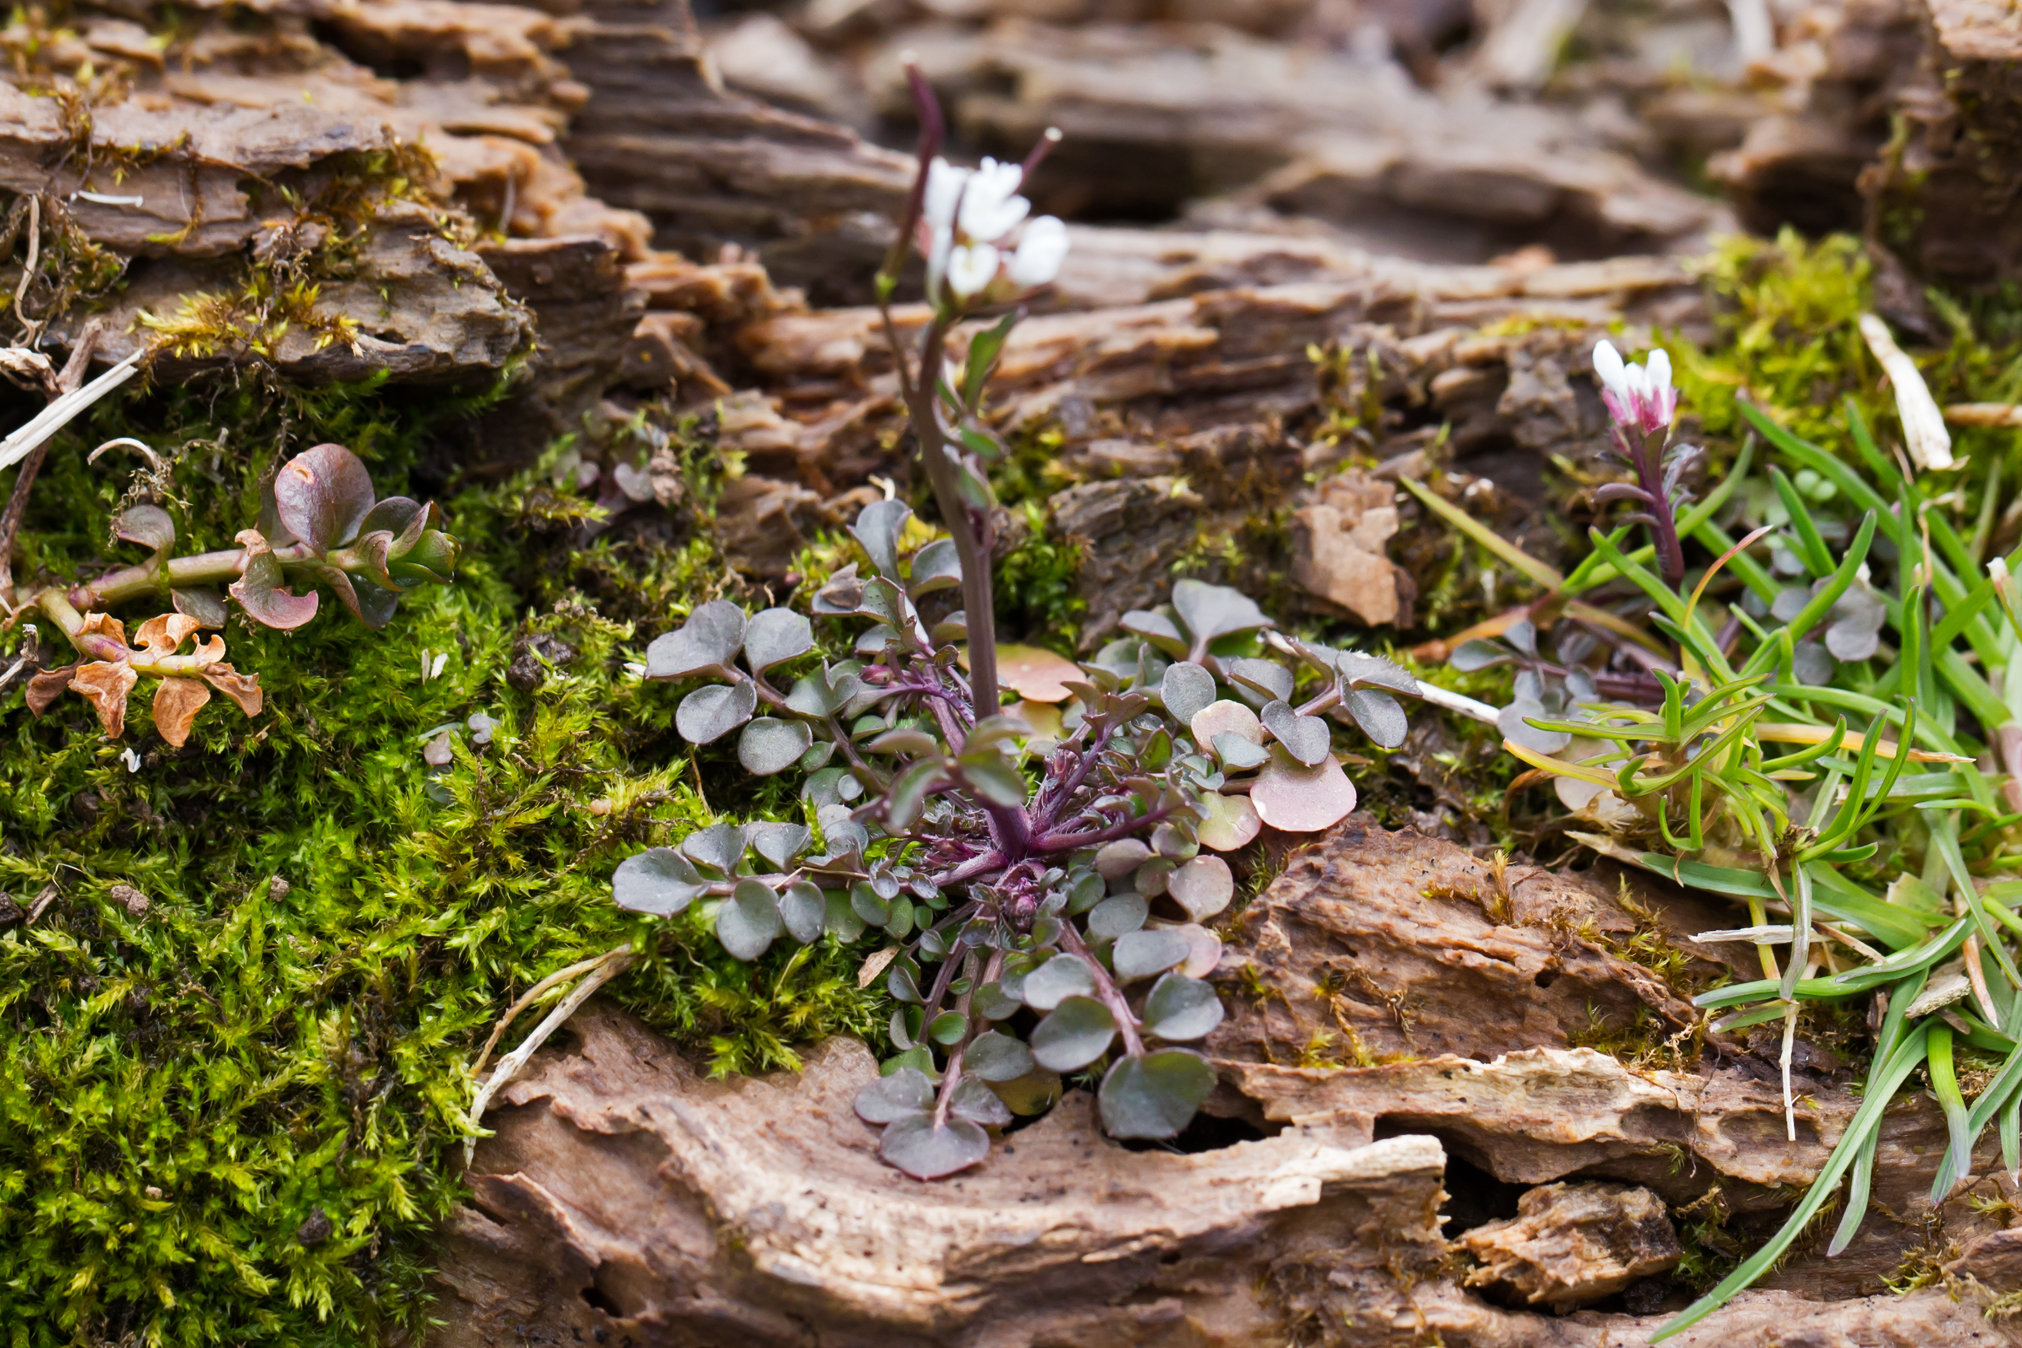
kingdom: Plantae
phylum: Tracheophyta
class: Magnoliopsida
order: Brassicales
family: Brassicaceae
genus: Cardamine
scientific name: Cardamine hirsuta
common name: Hairy bittercress
